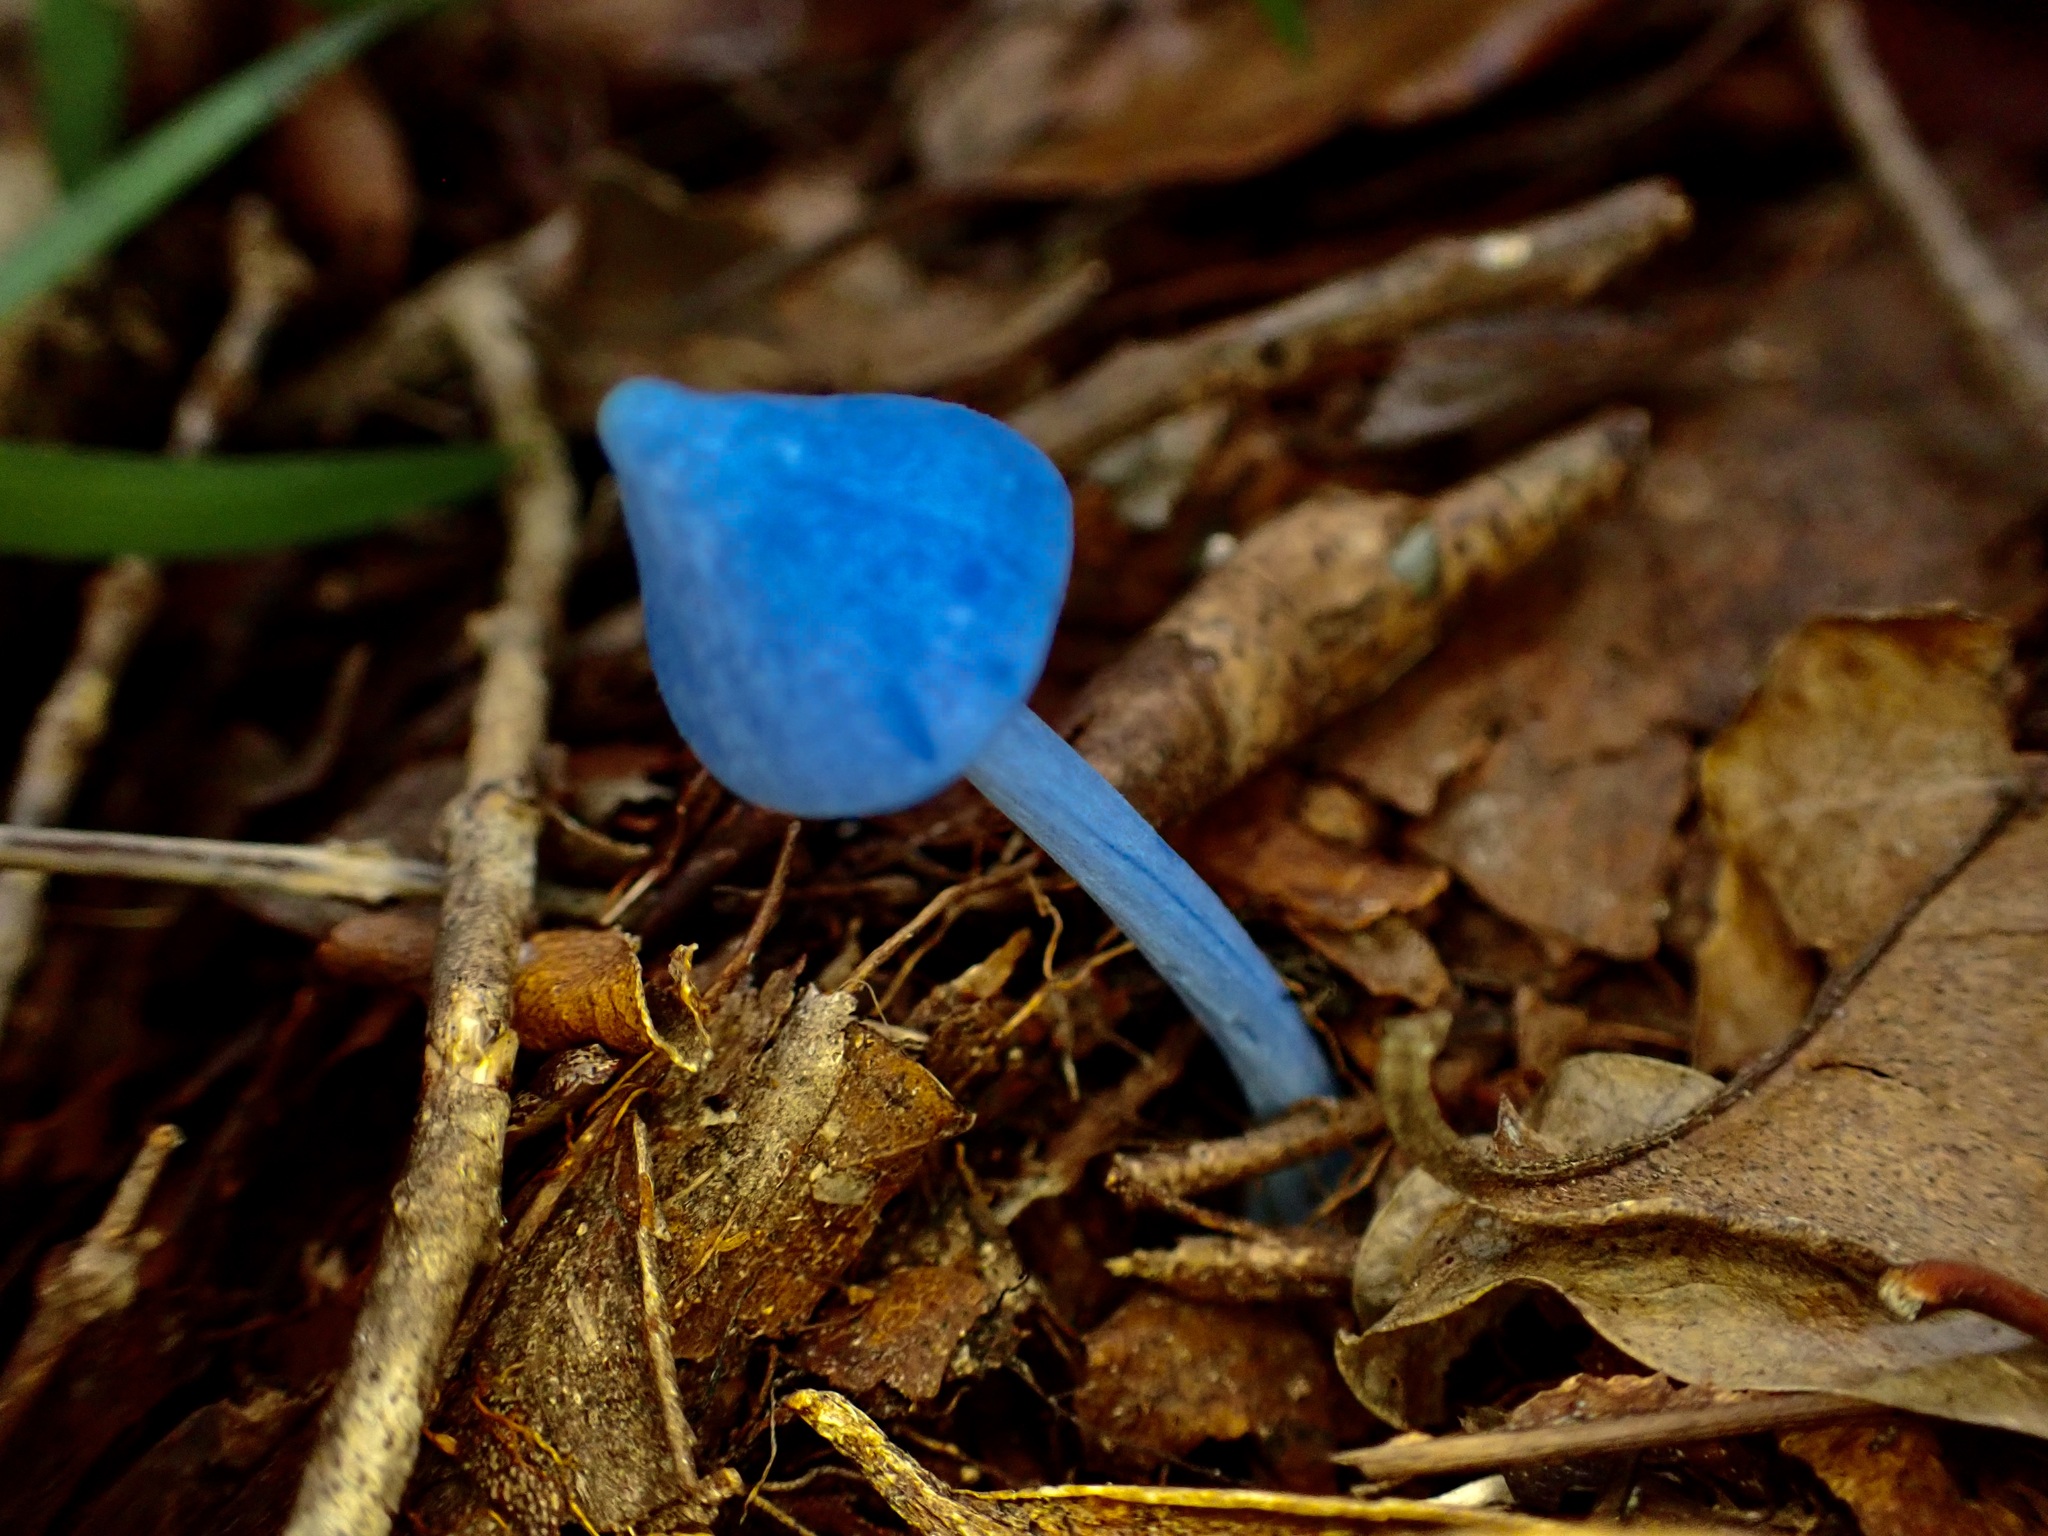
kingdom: Fungi
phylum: Basidiomycota
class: Agaricomycetes
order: Agaricales
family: Entolomataceae
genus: Entoloma
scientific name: Entoloma hochstetteri
